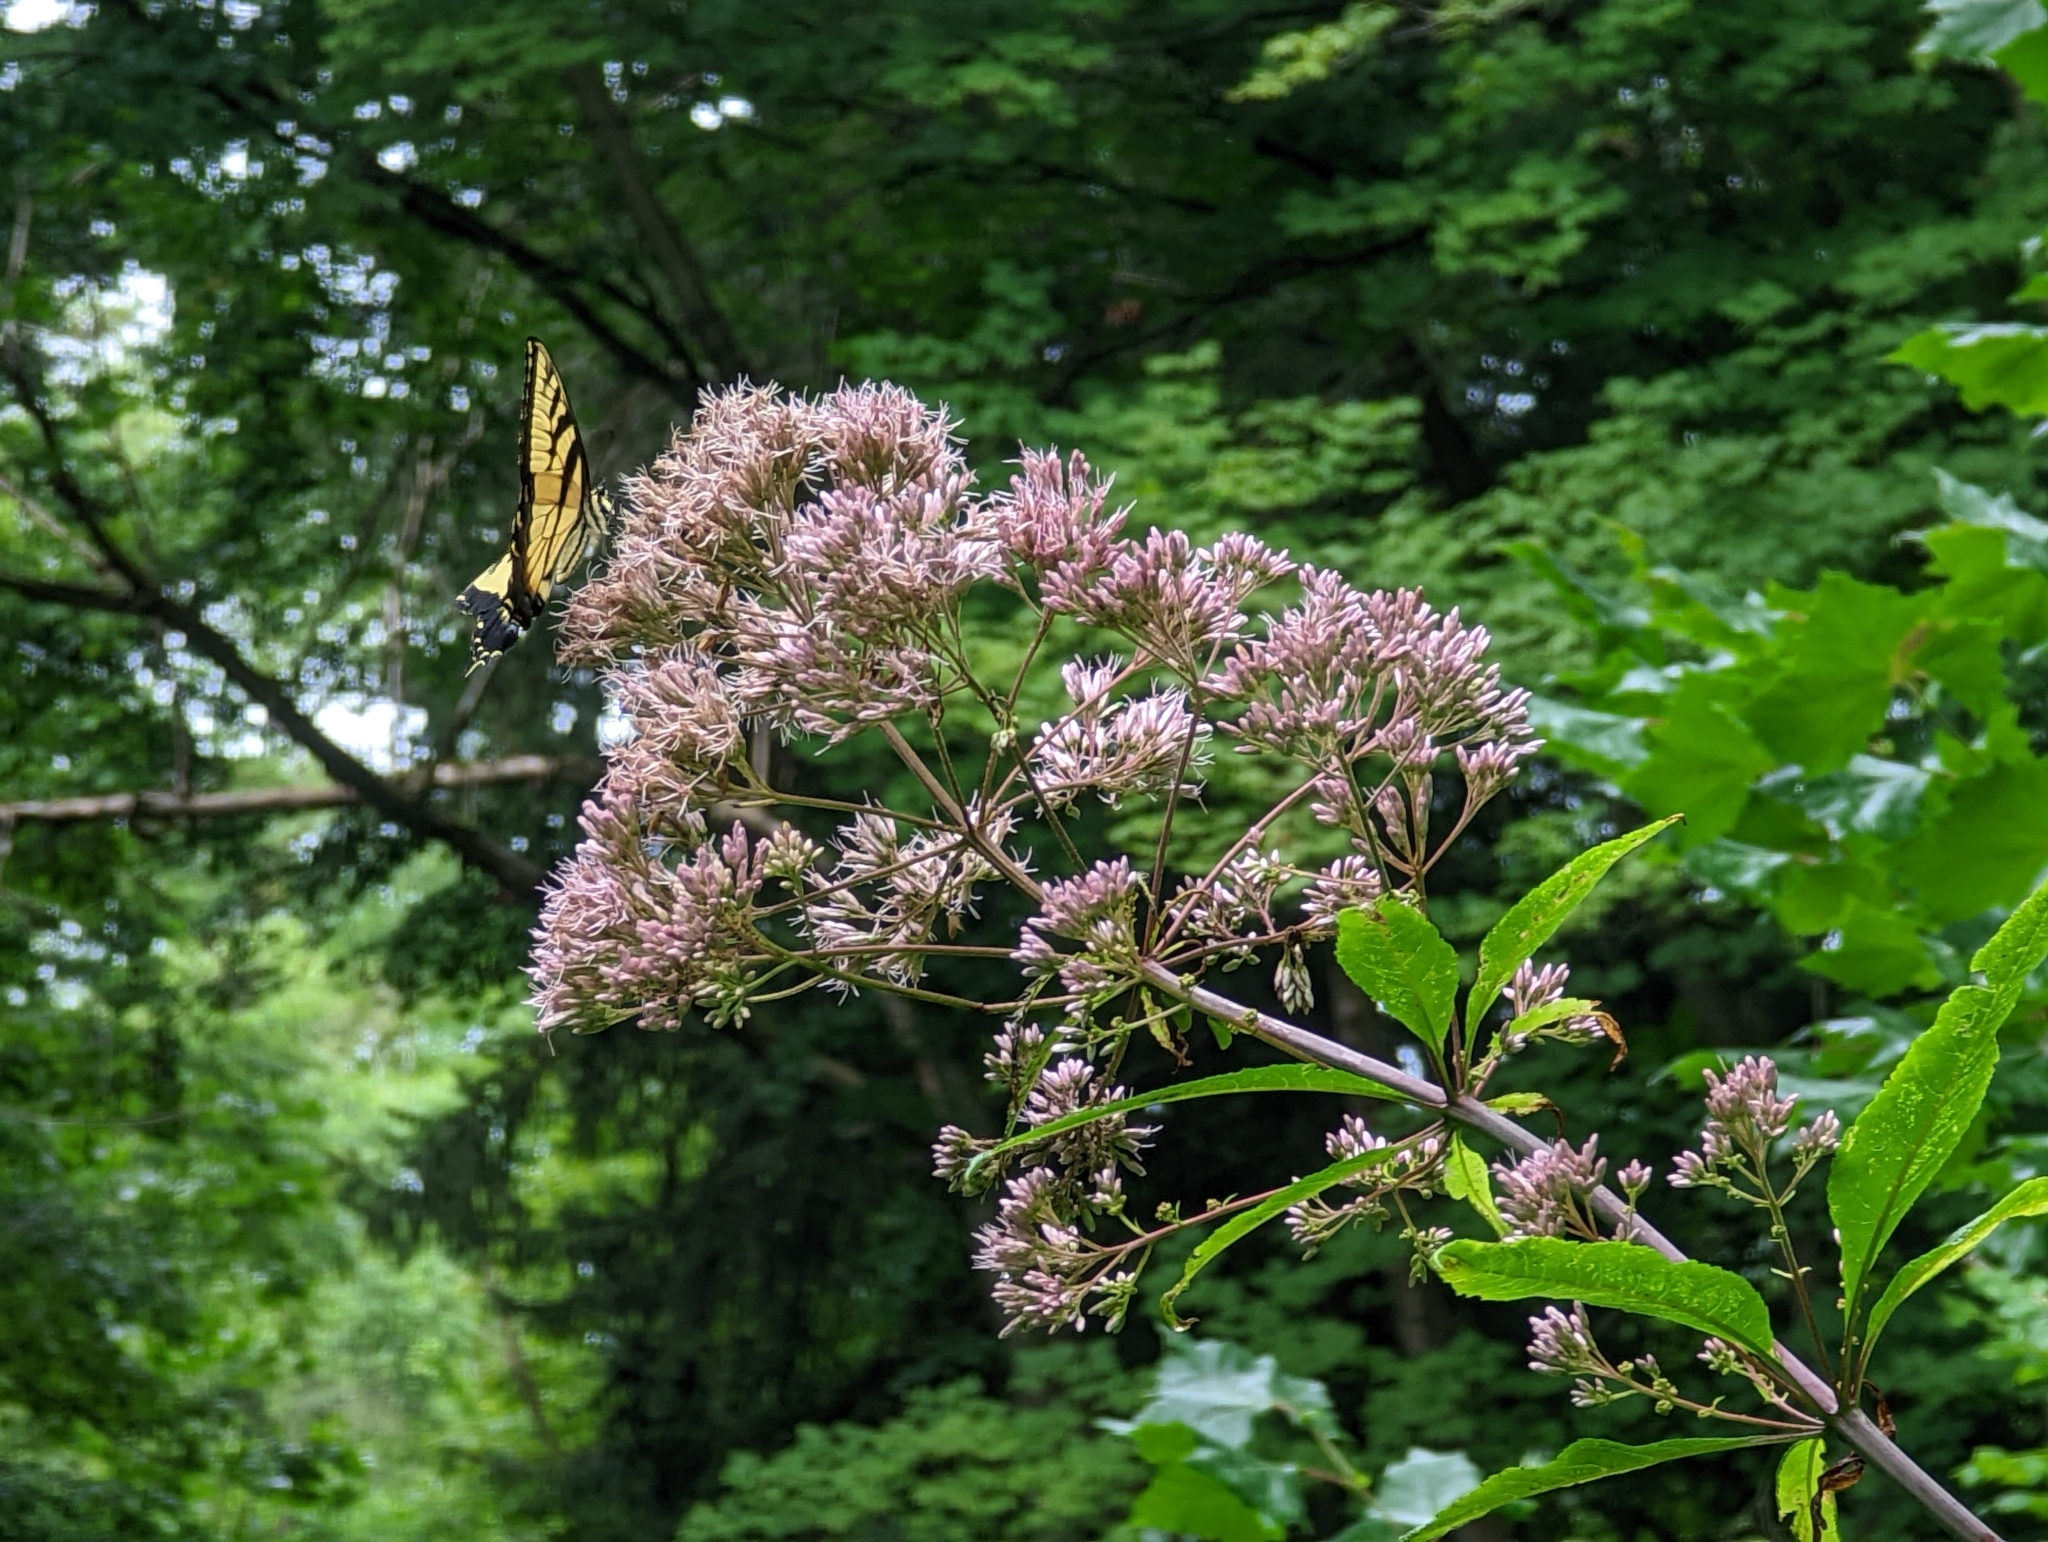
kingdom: Animalia
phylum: Arthropoda
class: Insecta
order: Lepidoptera
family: Papilionidae
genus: Papilio
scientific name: Papilio glaucus
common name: Tiger swallowtail
